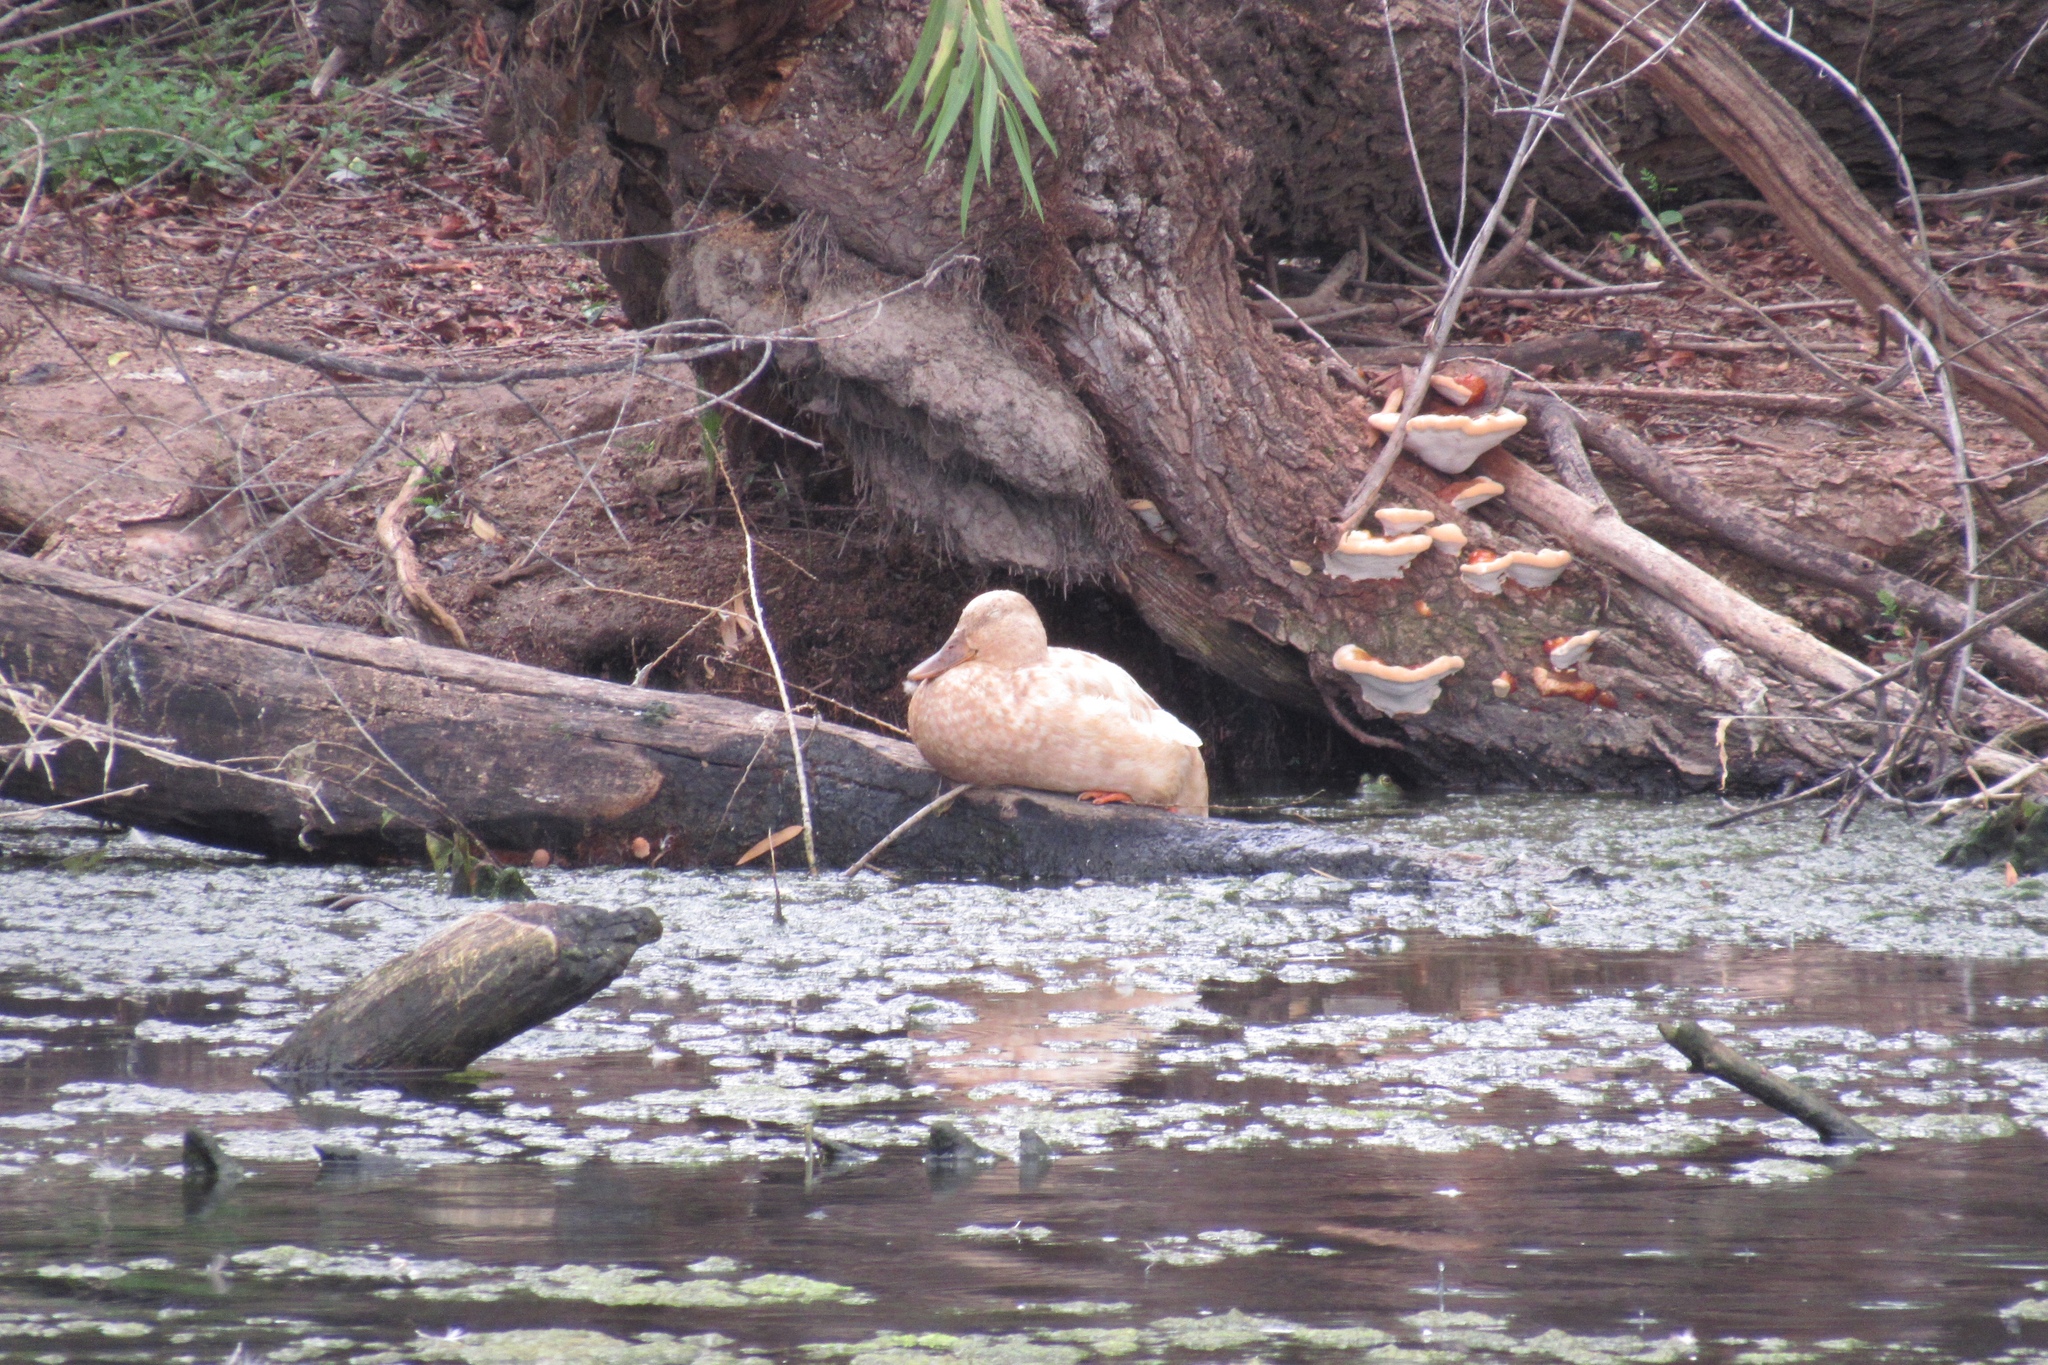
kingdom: Animalia
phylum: Chordata
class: Aves
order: Anseriformes
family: Anatidae
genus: Anas
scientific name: Anas platyrhynchos
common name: Mallard
